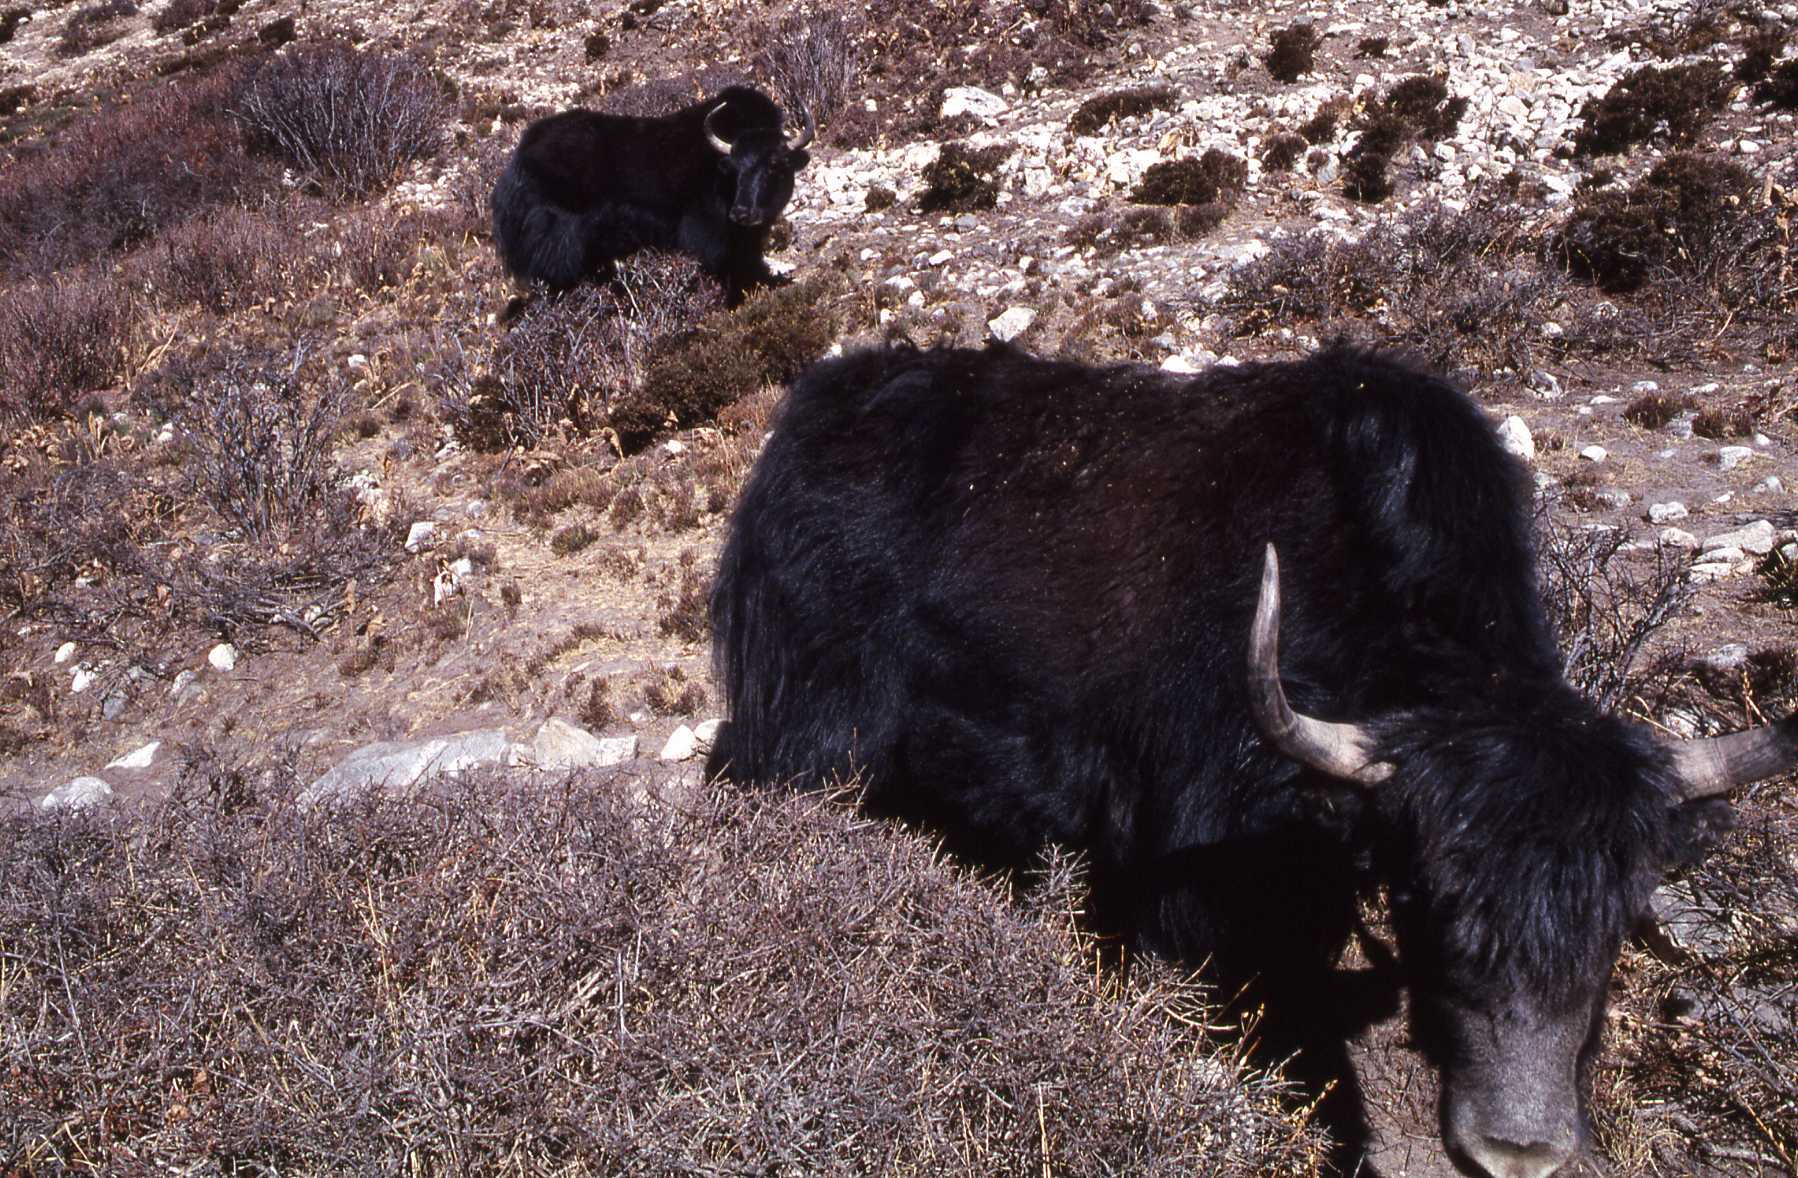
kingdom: Animalia
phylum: Chordata
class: Mammalia
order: Artiodactyla
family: Bovidae
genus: Bos
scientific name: Bos grunniens
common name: Yak
